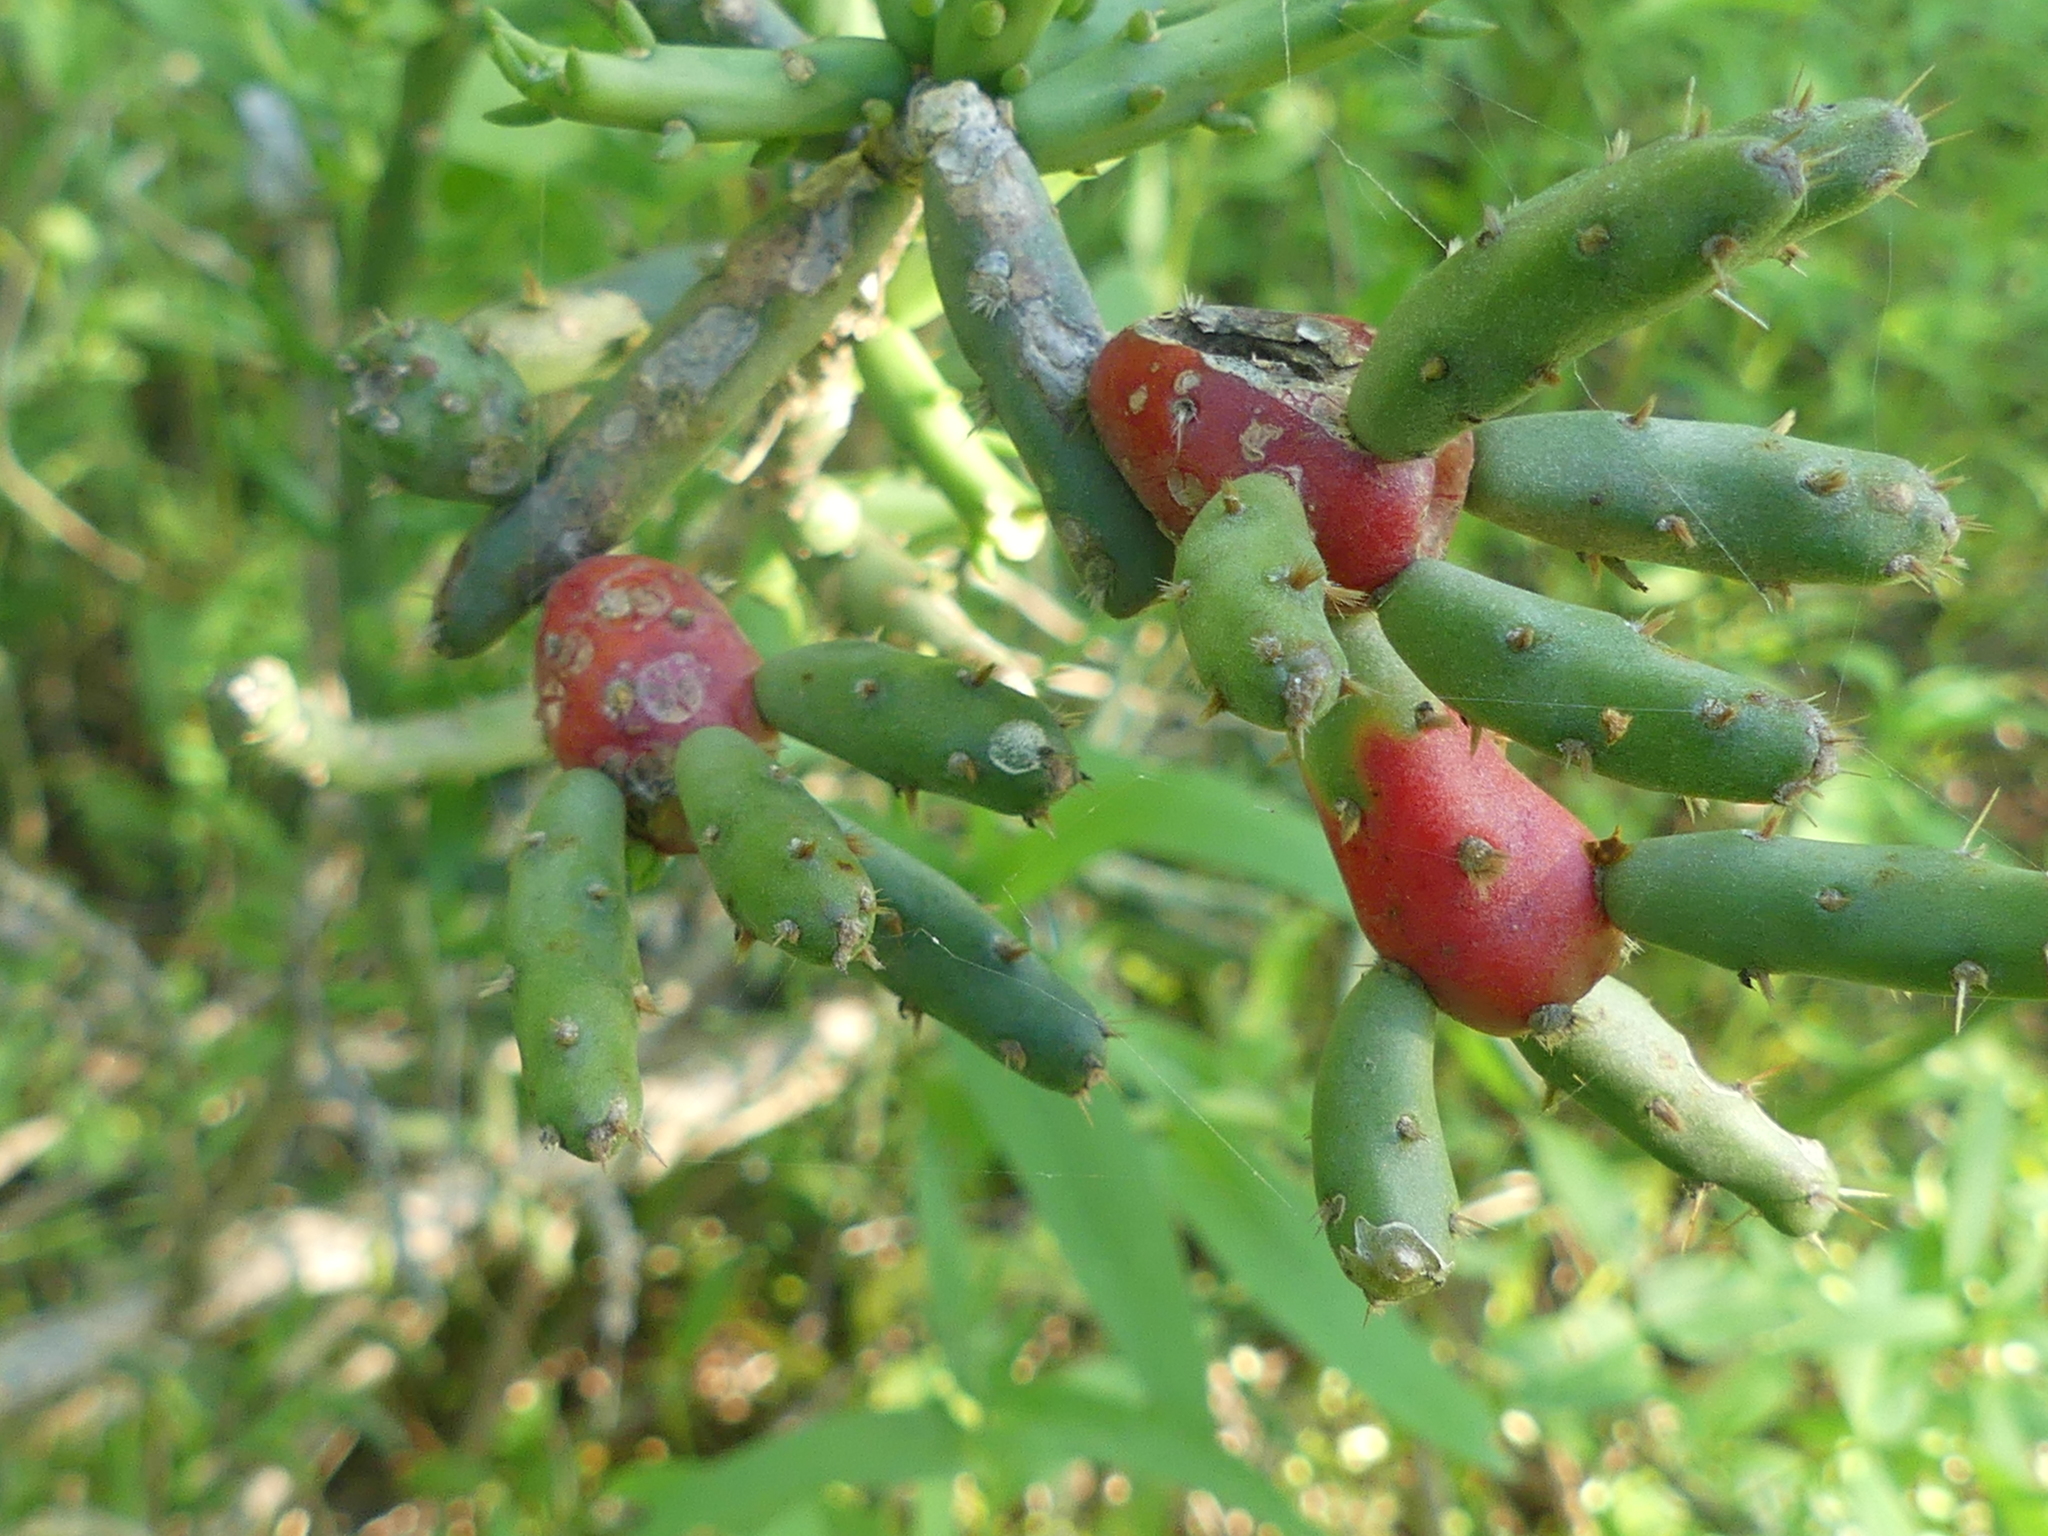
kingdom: Plantae
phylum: Tracheophyta
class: Magnoliopsida
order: Caryophyllales
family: Cactaceae
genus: Cylindropuntia
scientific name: Cylindropuntia leptocaulis
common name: Christmas cactus
